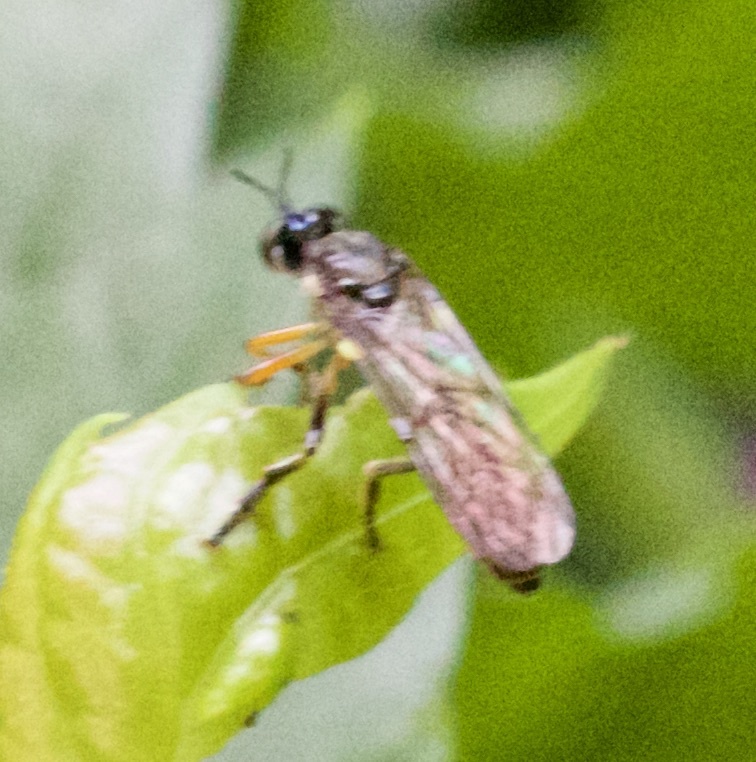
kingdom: Animalia
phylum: Arthropoda
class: Insecta
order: Diptera
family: Asilidae
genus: Dioctria
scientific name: Dioctria hyalipennis
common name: Stripe-legged robberfly
